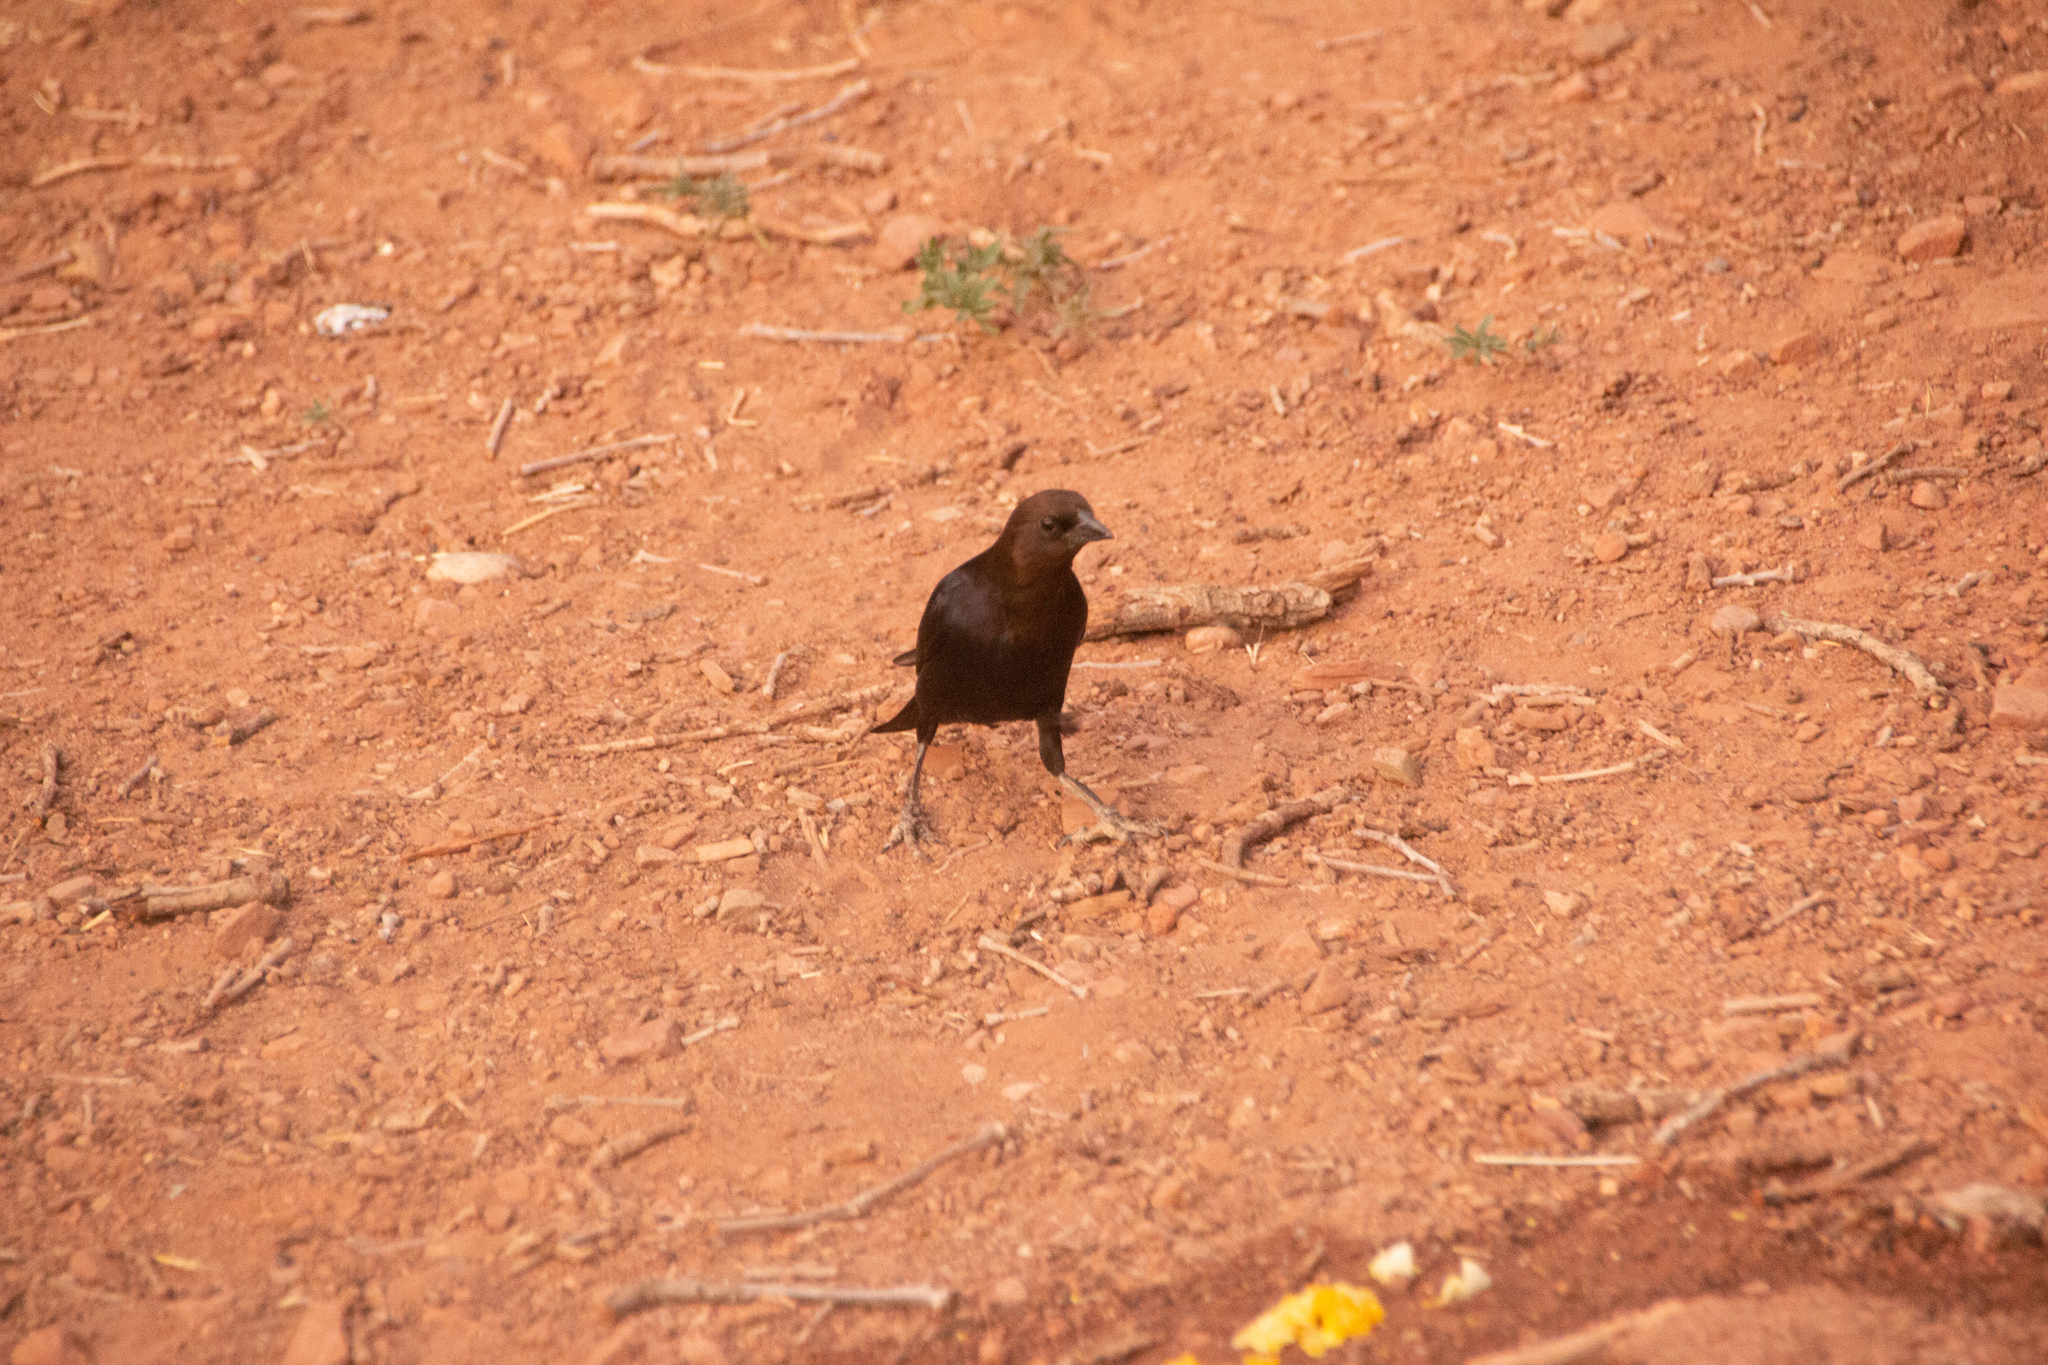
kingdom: Animalia
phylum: Chordata
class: Aves
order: Passeriformes
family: Icteridae
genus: Molothrus
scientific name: Molothrus ater
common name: Brown-headed cowbird
